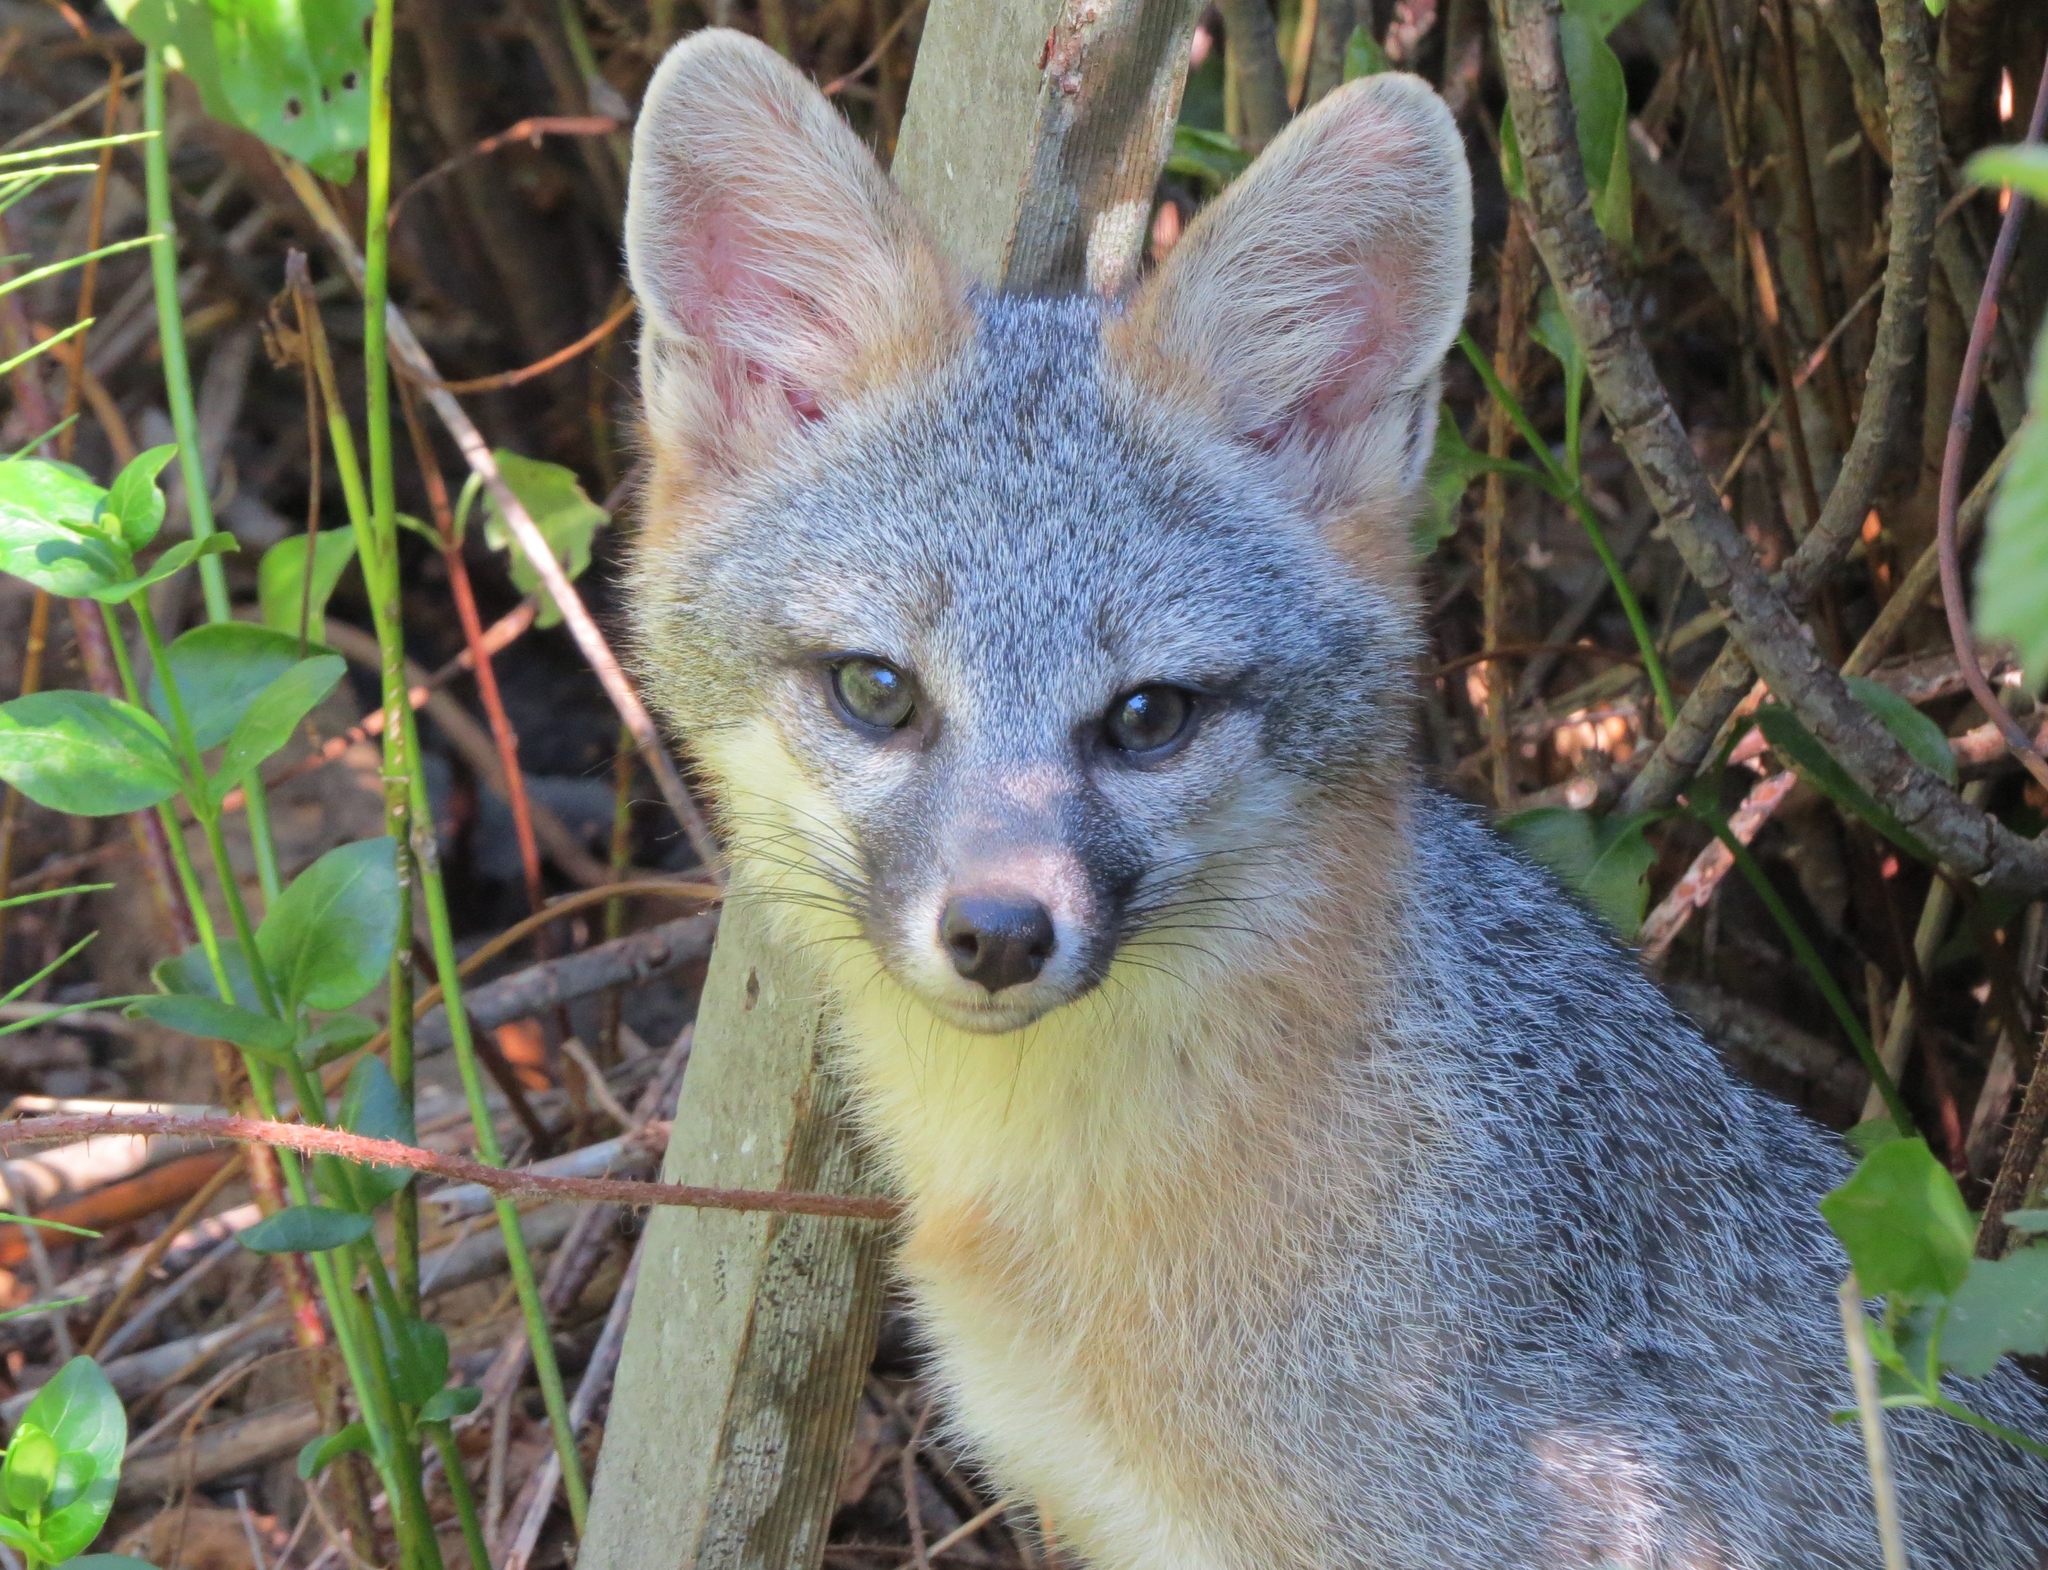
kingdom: Animalia
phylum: Chordata
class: Mammalia
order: Carnivora
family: Canidae
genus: Urocyon
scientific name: Urocyon cinereoargenteus
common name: Gray fox
